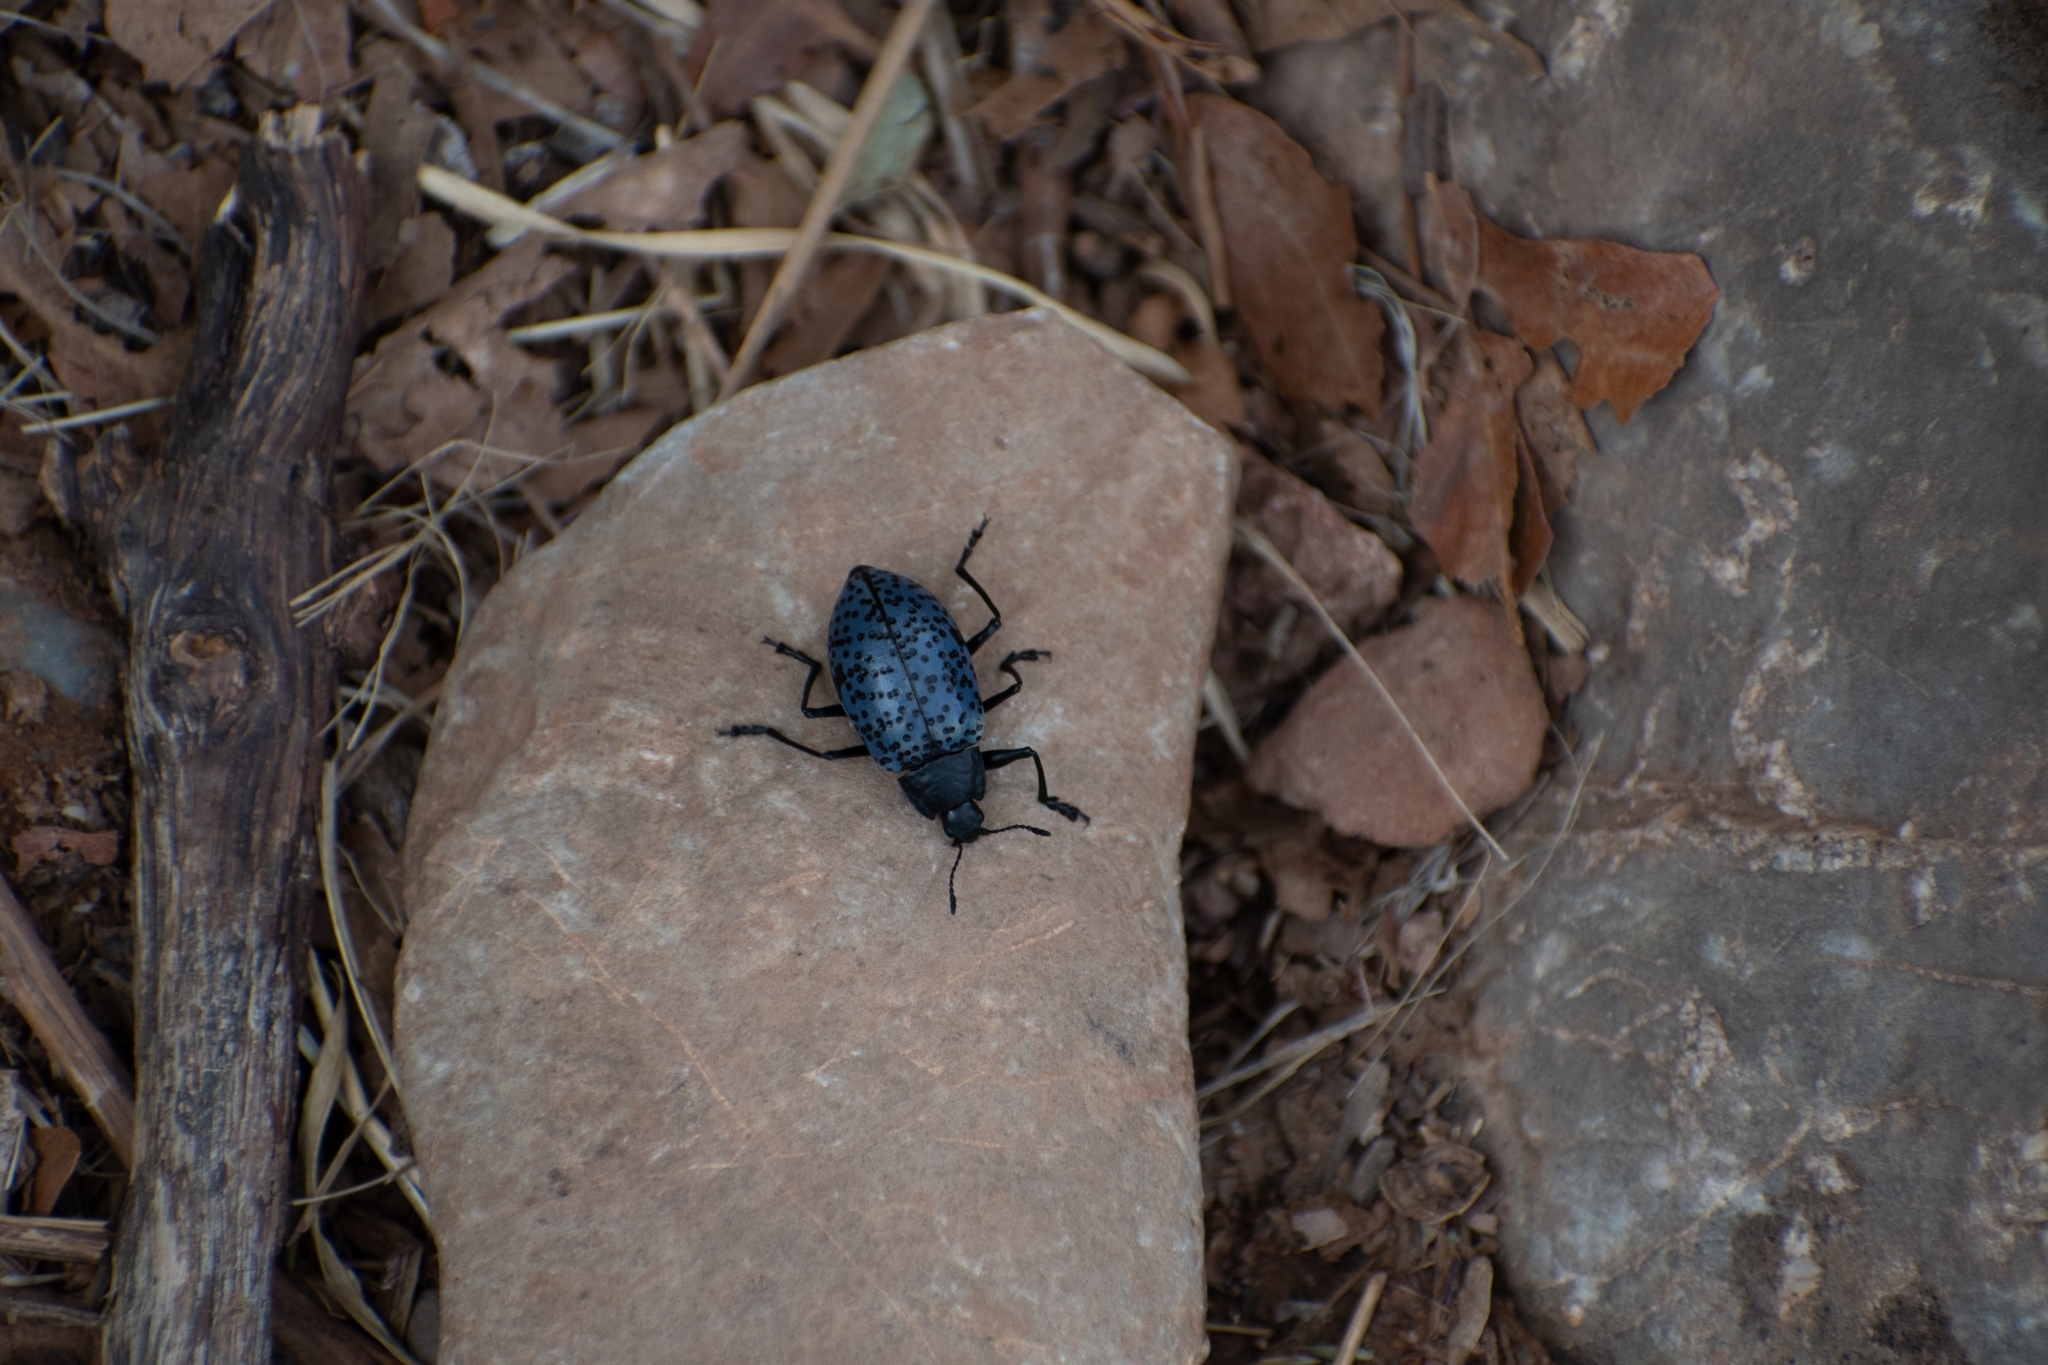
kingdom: Animalia
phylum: Arthropoda
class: Insecta
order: Coleoptera
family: Erotylidae
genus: Gibbifer
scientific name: Gibbifer californicus
